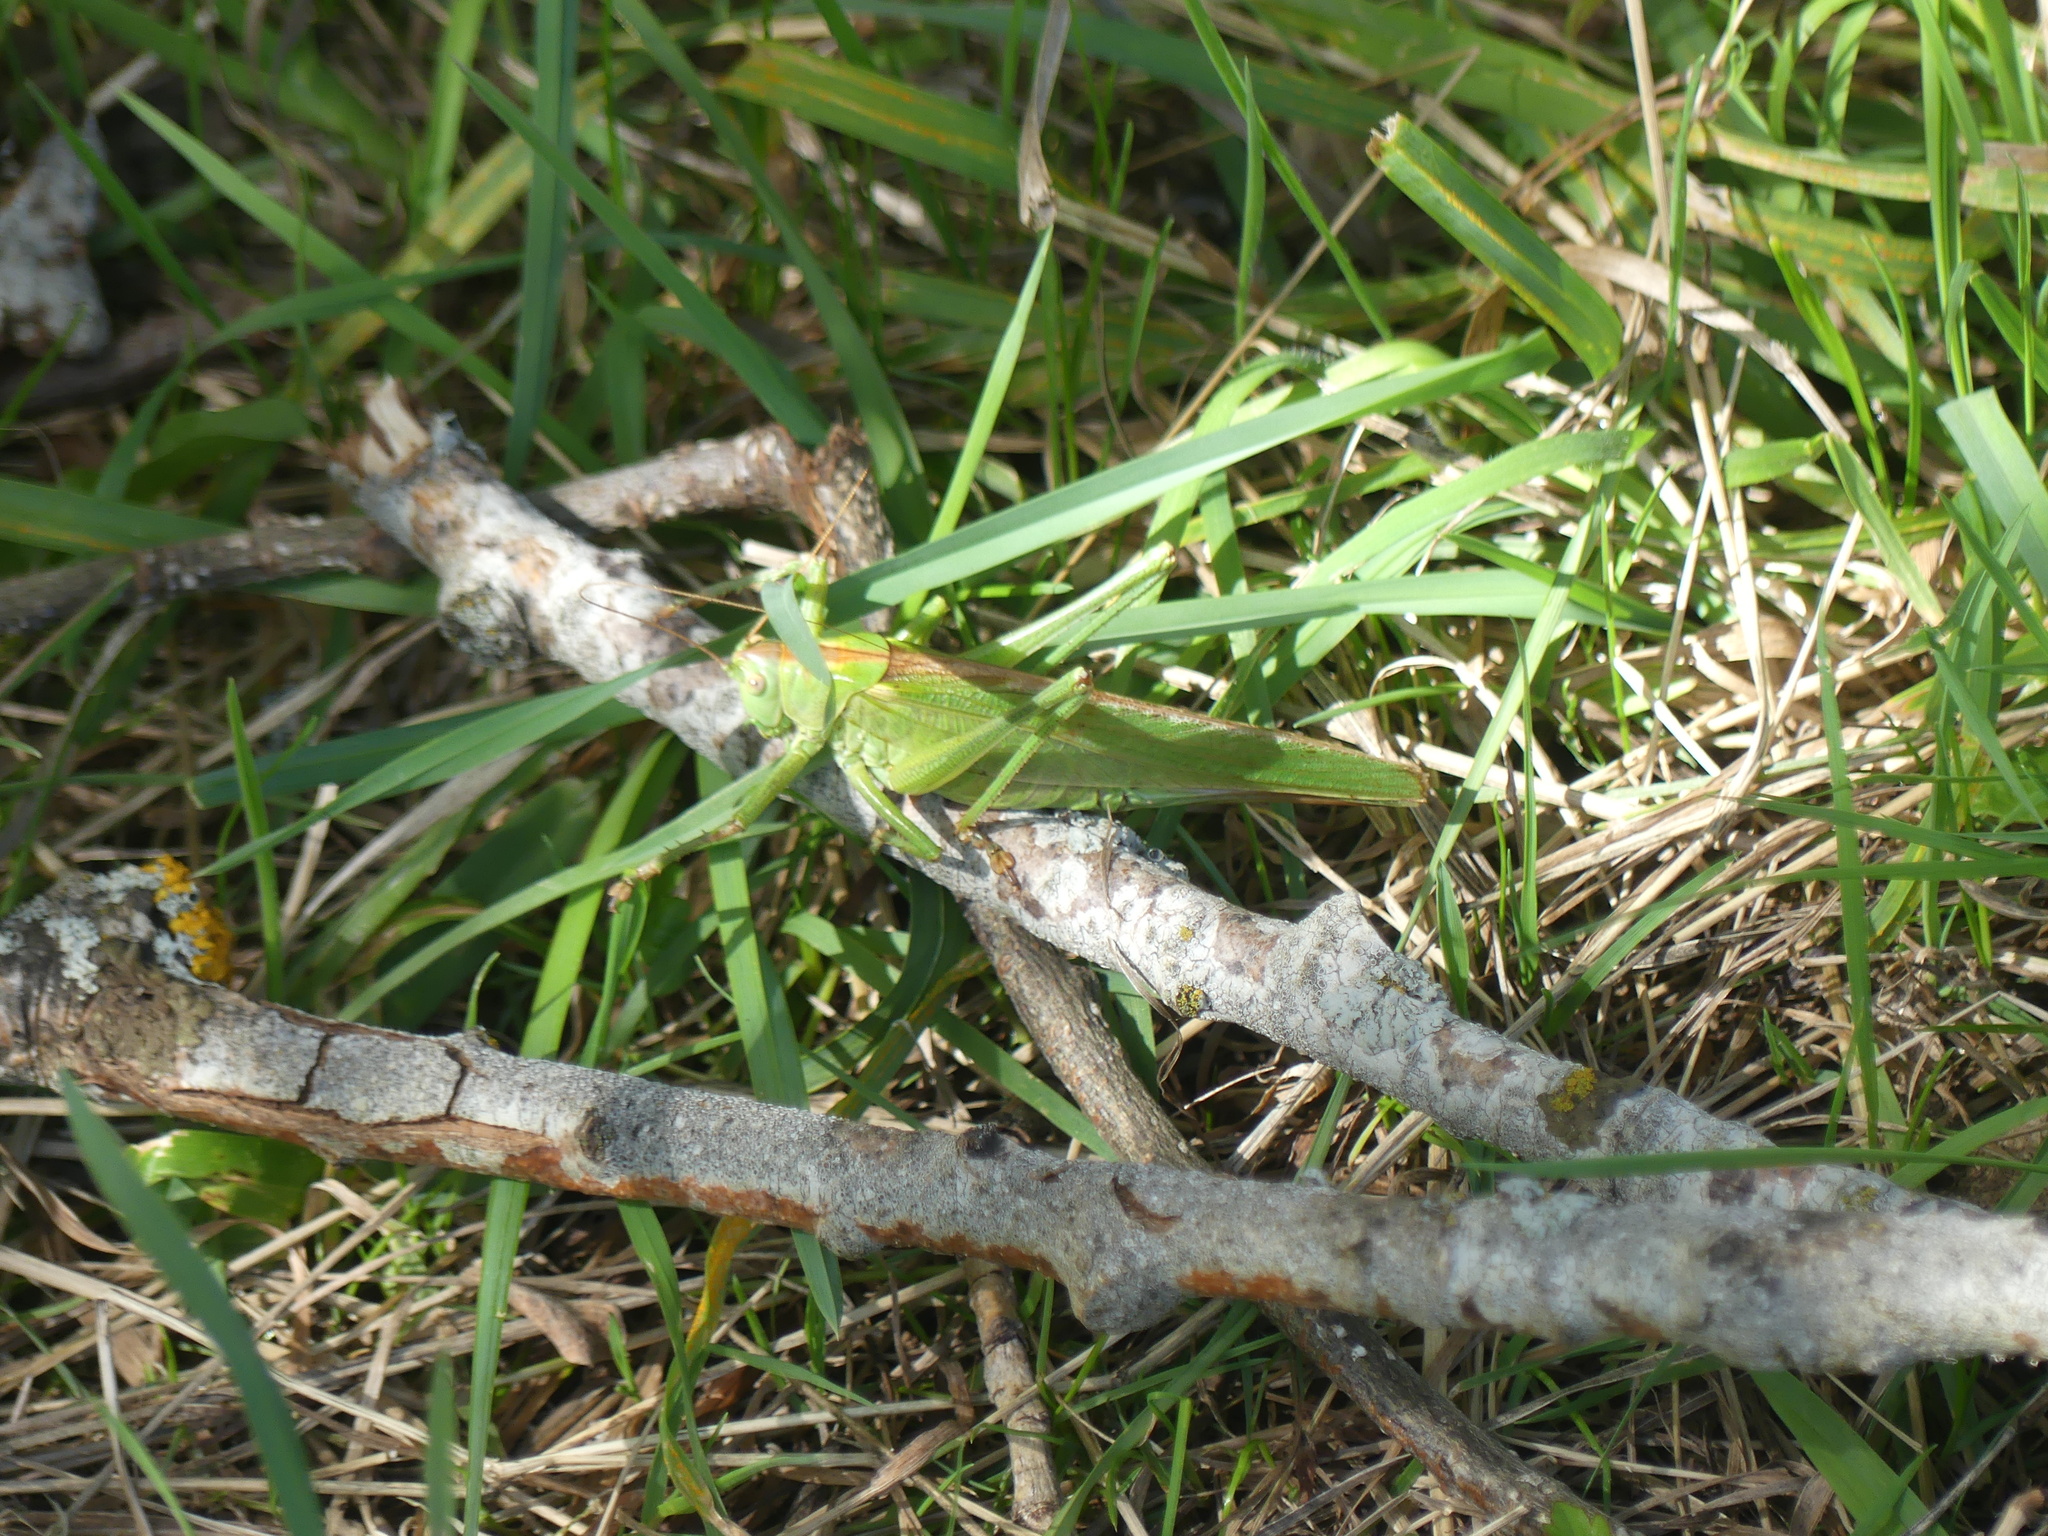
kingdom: Animalia
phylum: Arthropoda
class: Insecta
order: Orthoptera
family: Tettigoniidae
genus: Tettigonia
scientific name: Tettigonia viridissima
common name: Great green bush-cricket
